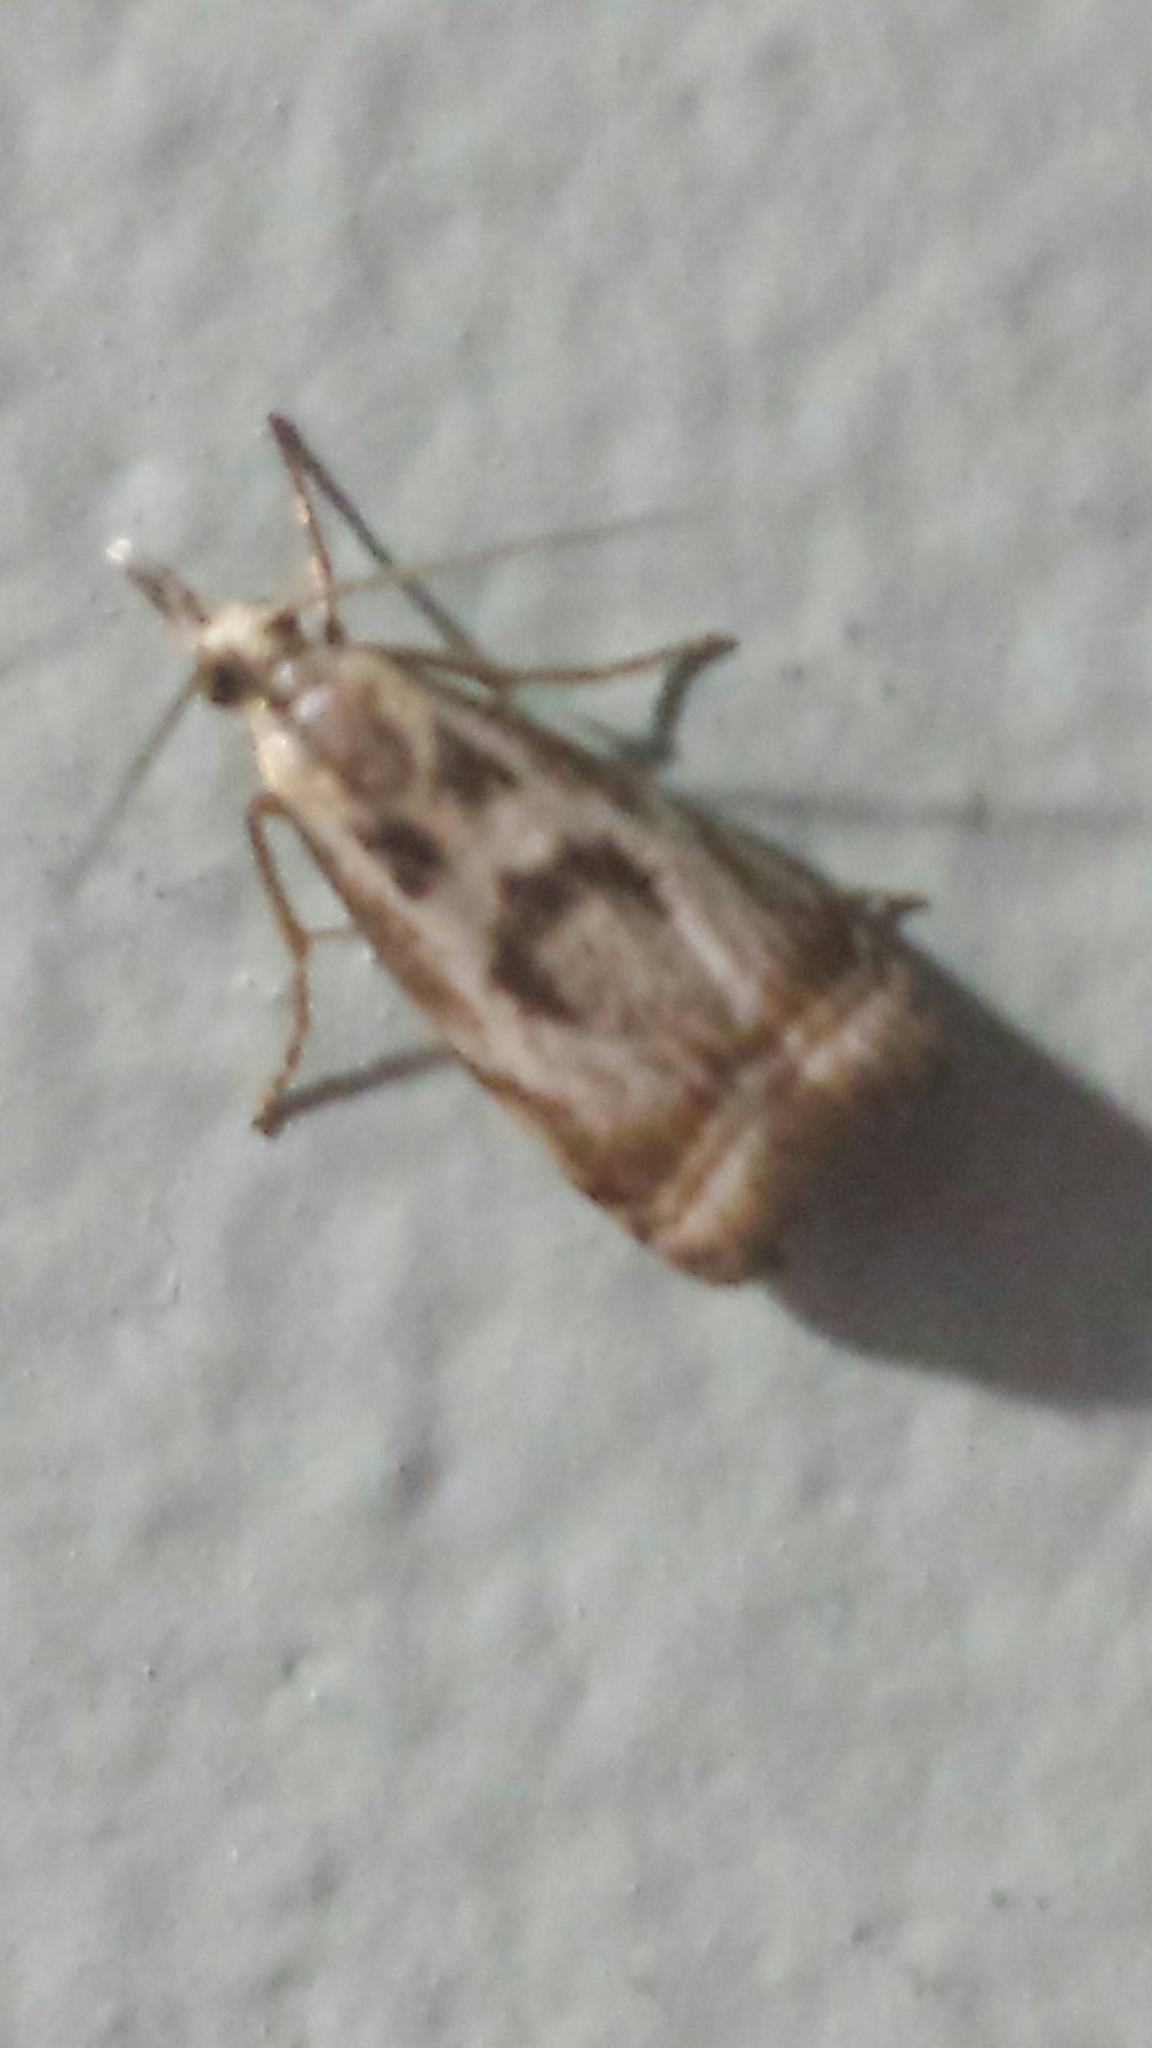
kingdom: Animalia
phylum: Arthropoda
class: Insecta
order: Lepidoptera
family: Crambidae
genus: Microcrambus
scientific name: Microcrambus elegans
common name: Elegant grass-veneer
